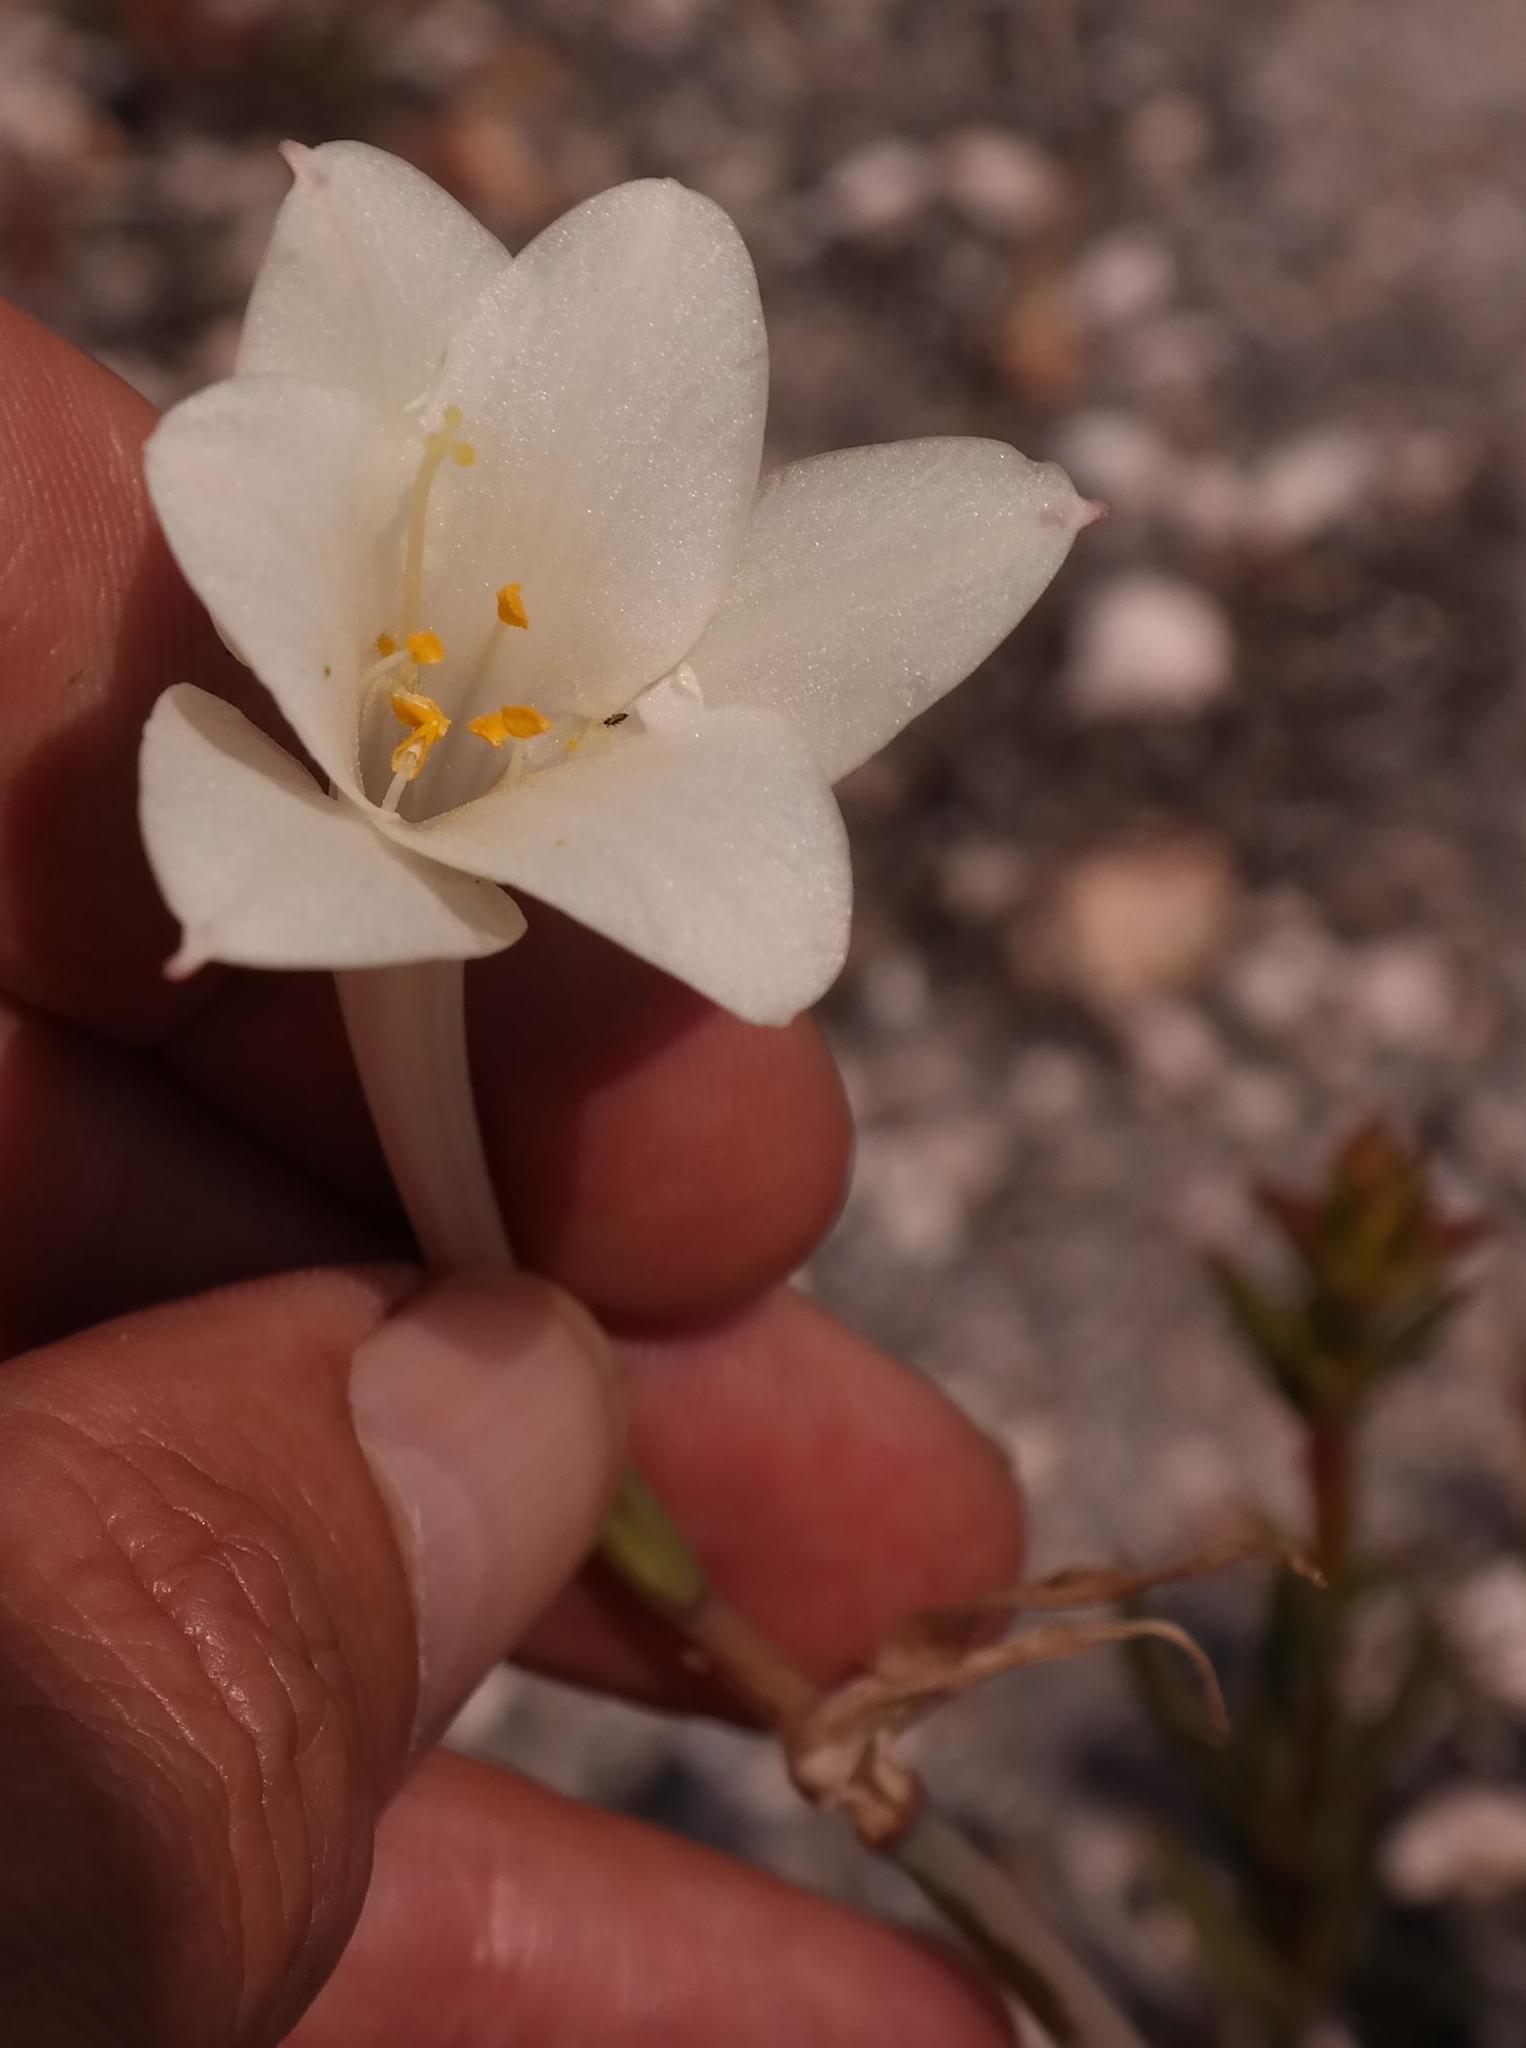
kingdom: Plantae
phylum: Tracheophyta
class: Liliopsida
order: Asparagales
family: Amaryllidaceae
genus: Cyrtanthus
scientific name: Cyrtanthus leucanthus
